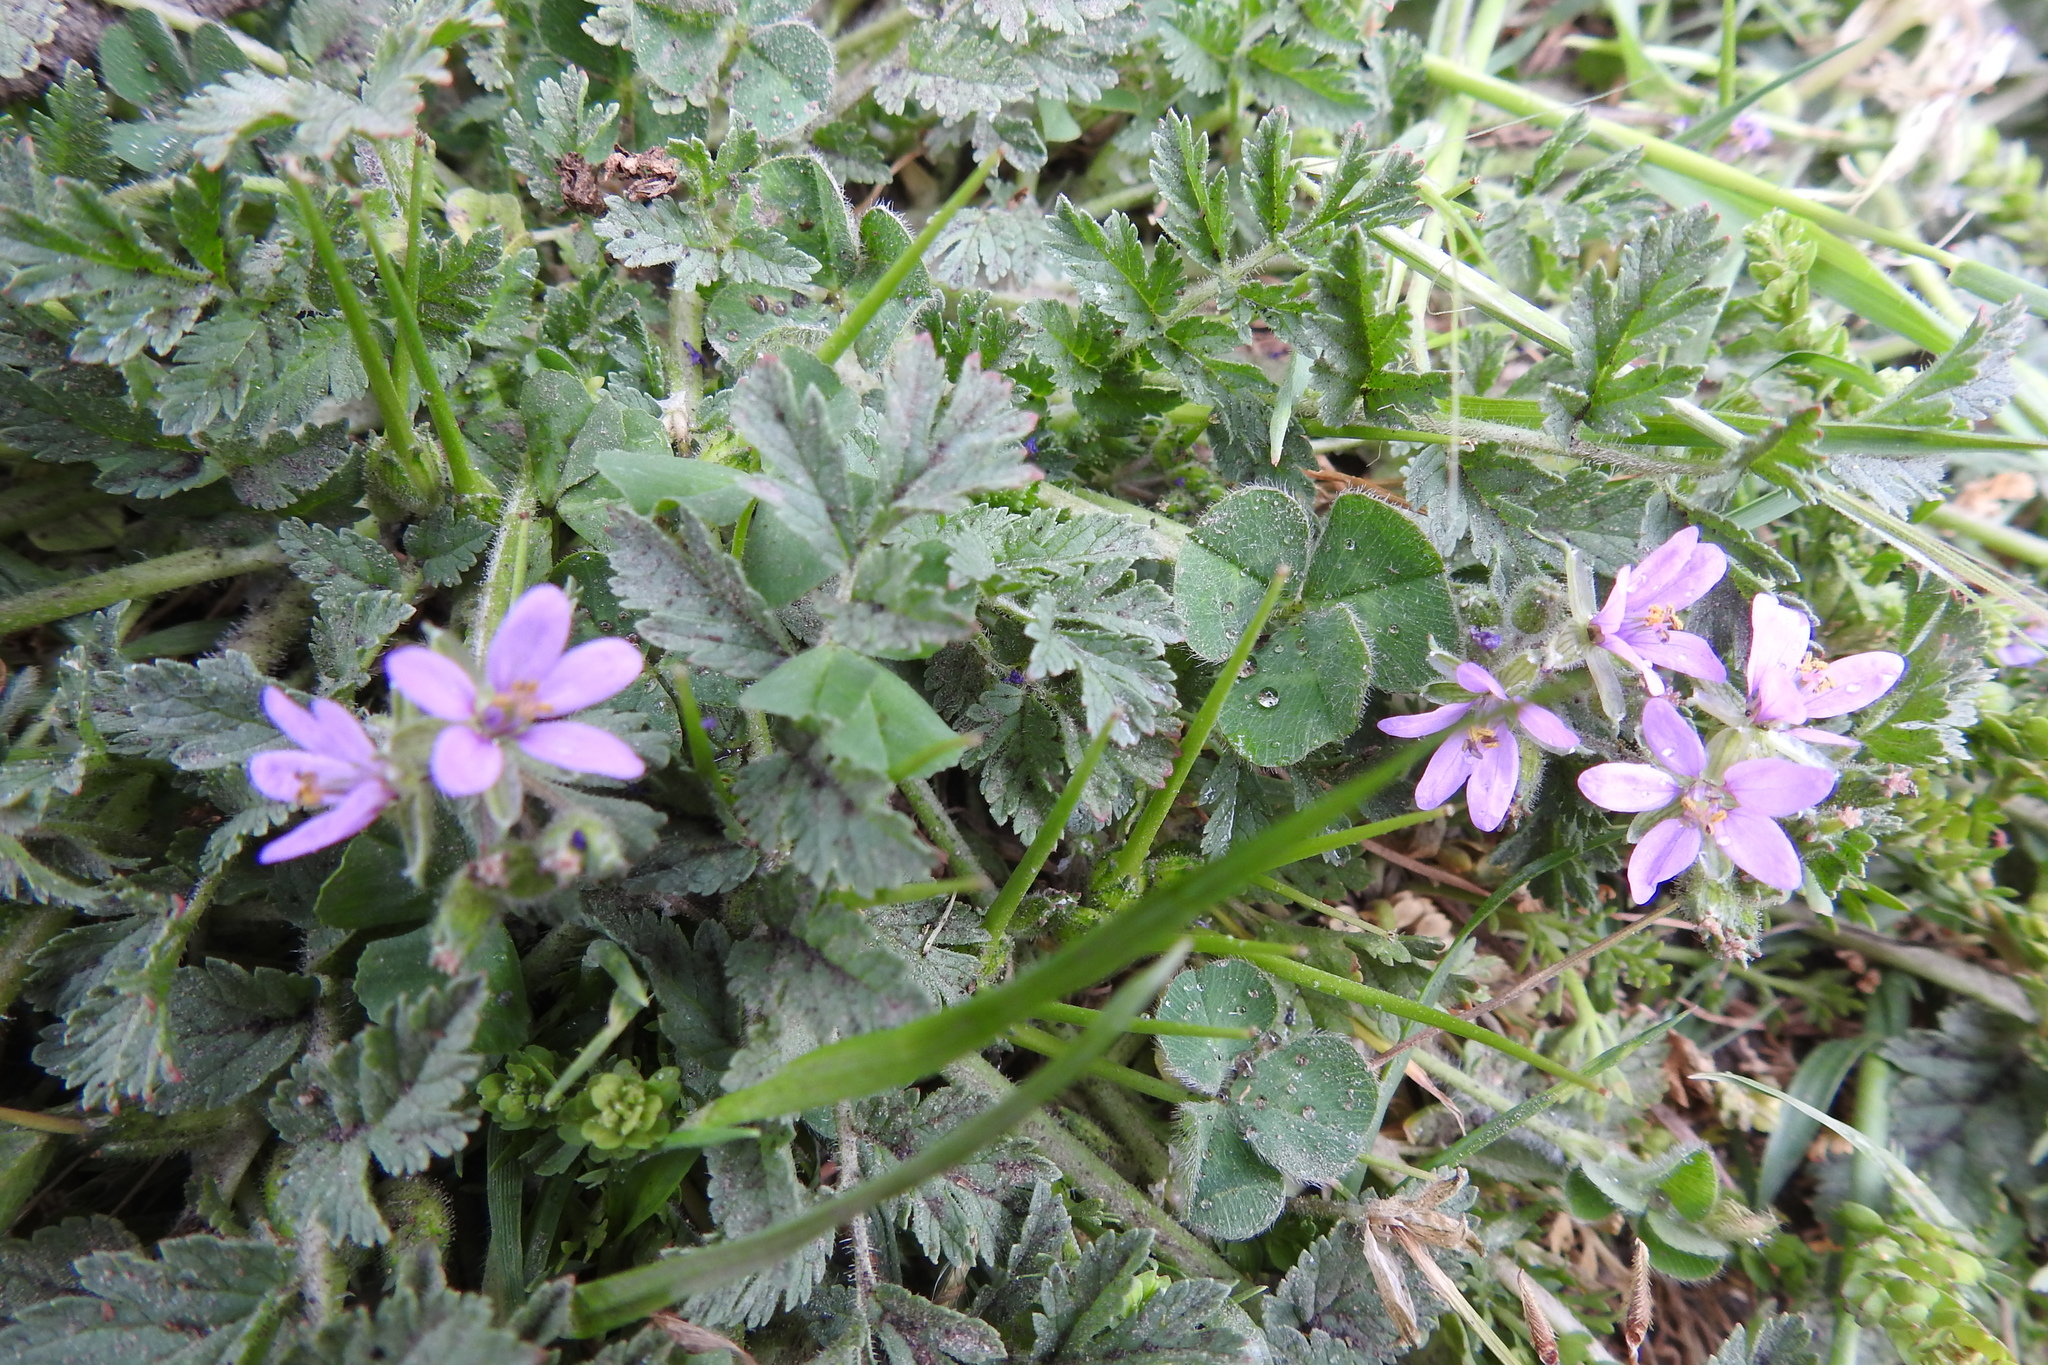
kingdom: Plantae
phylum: Tracheophyta
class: Magnoliopsida
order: Geraniales
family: Geraniaceae
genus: Erodium
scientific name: Erodium moschatum
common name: Musk stork's-bill
